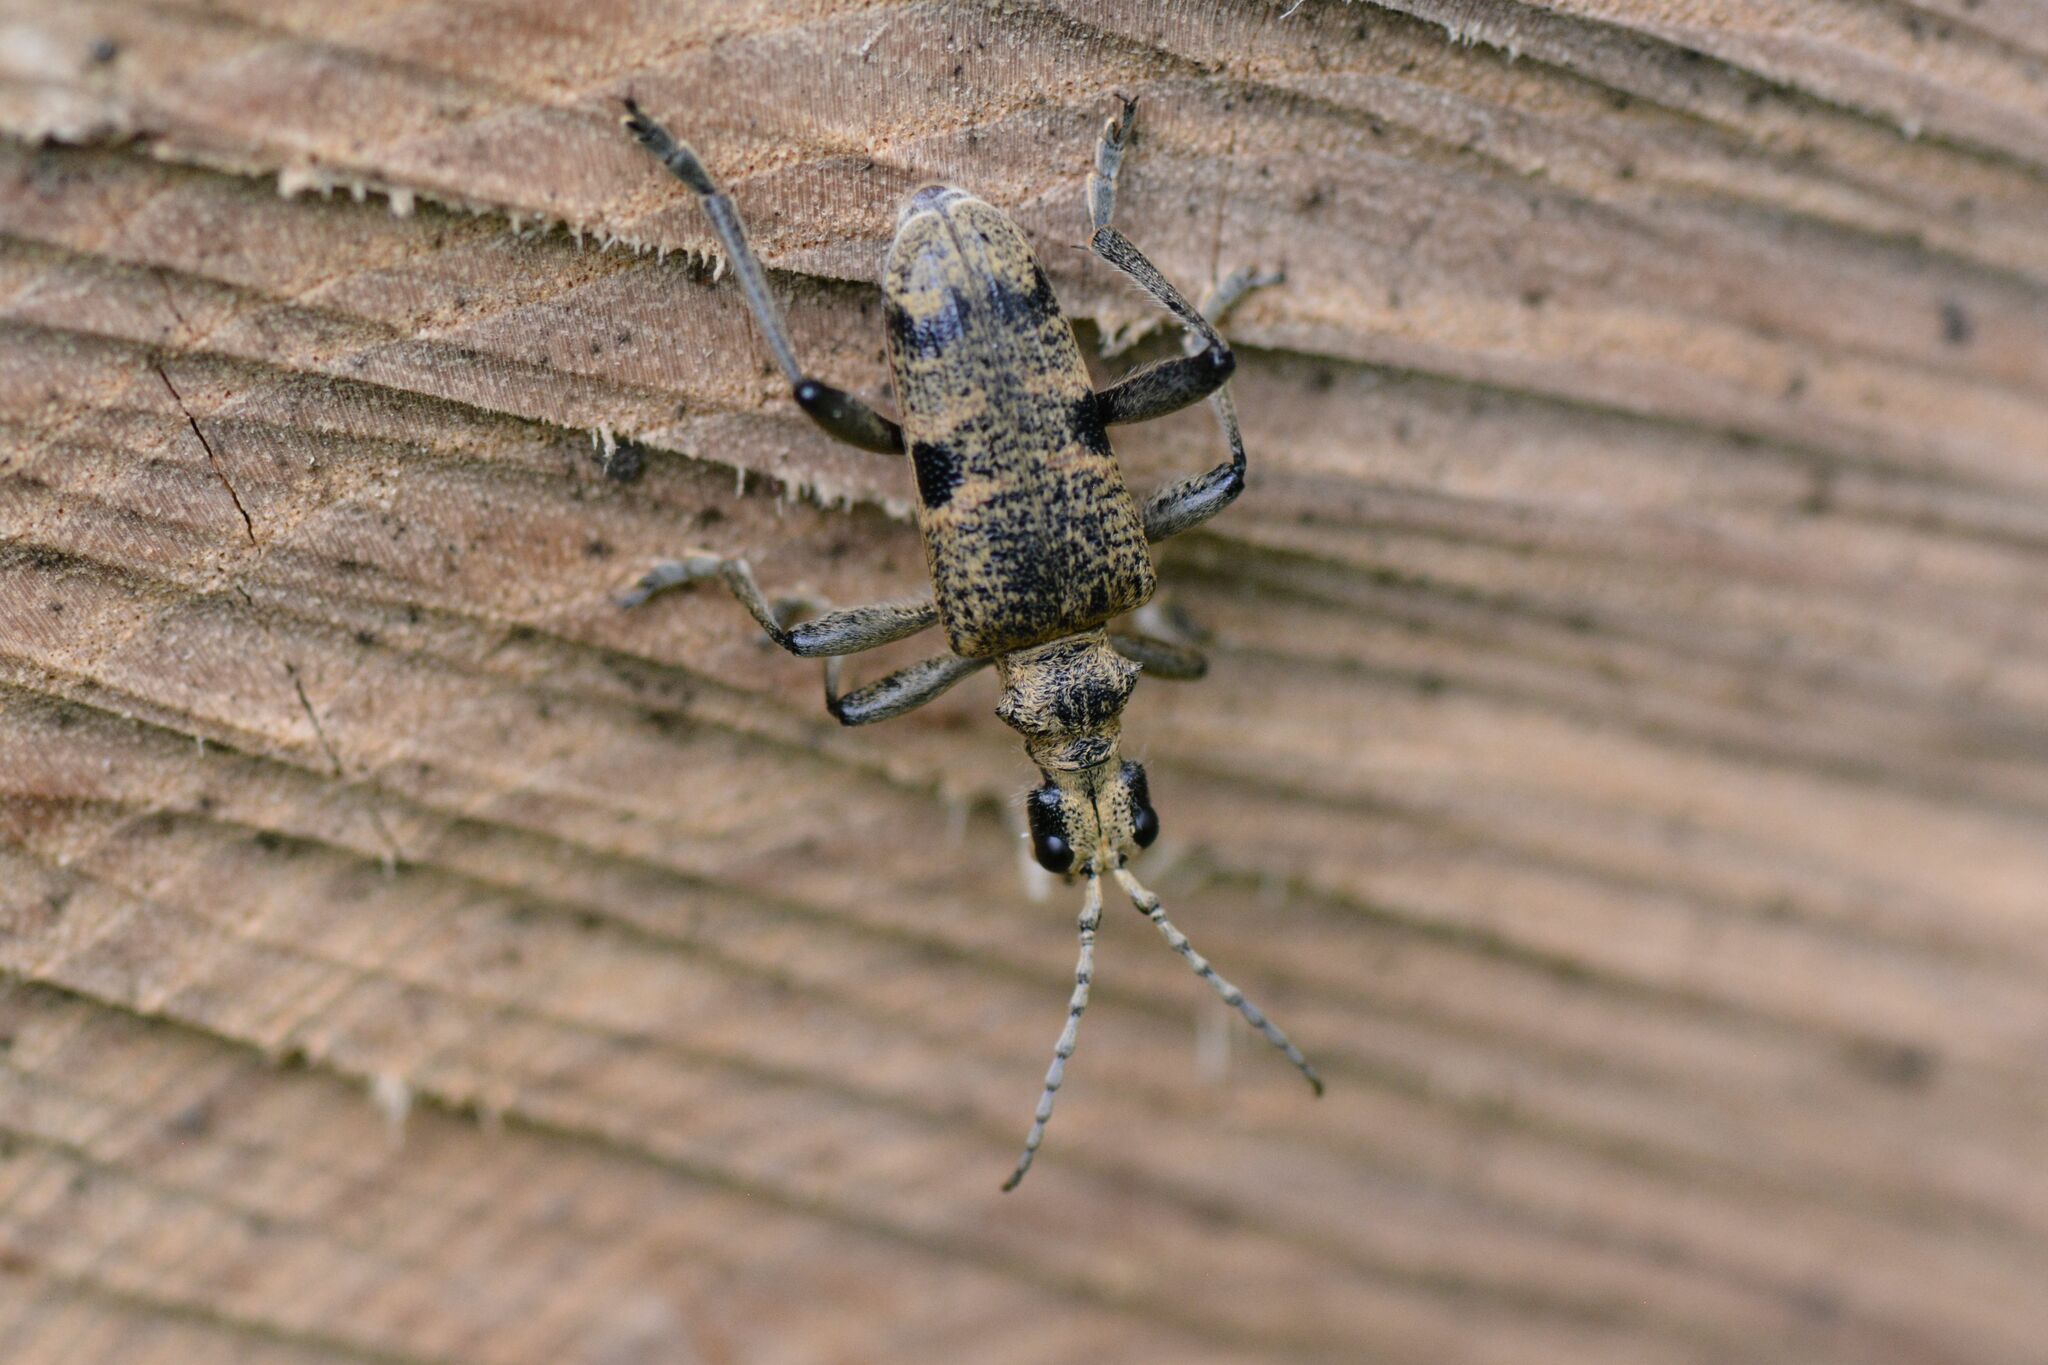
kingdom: Animalia
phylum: Arthropoda
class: Insecta
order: Coleoptera
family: Cerambycidae
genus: Rhagium
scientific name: Rhagium mordax
